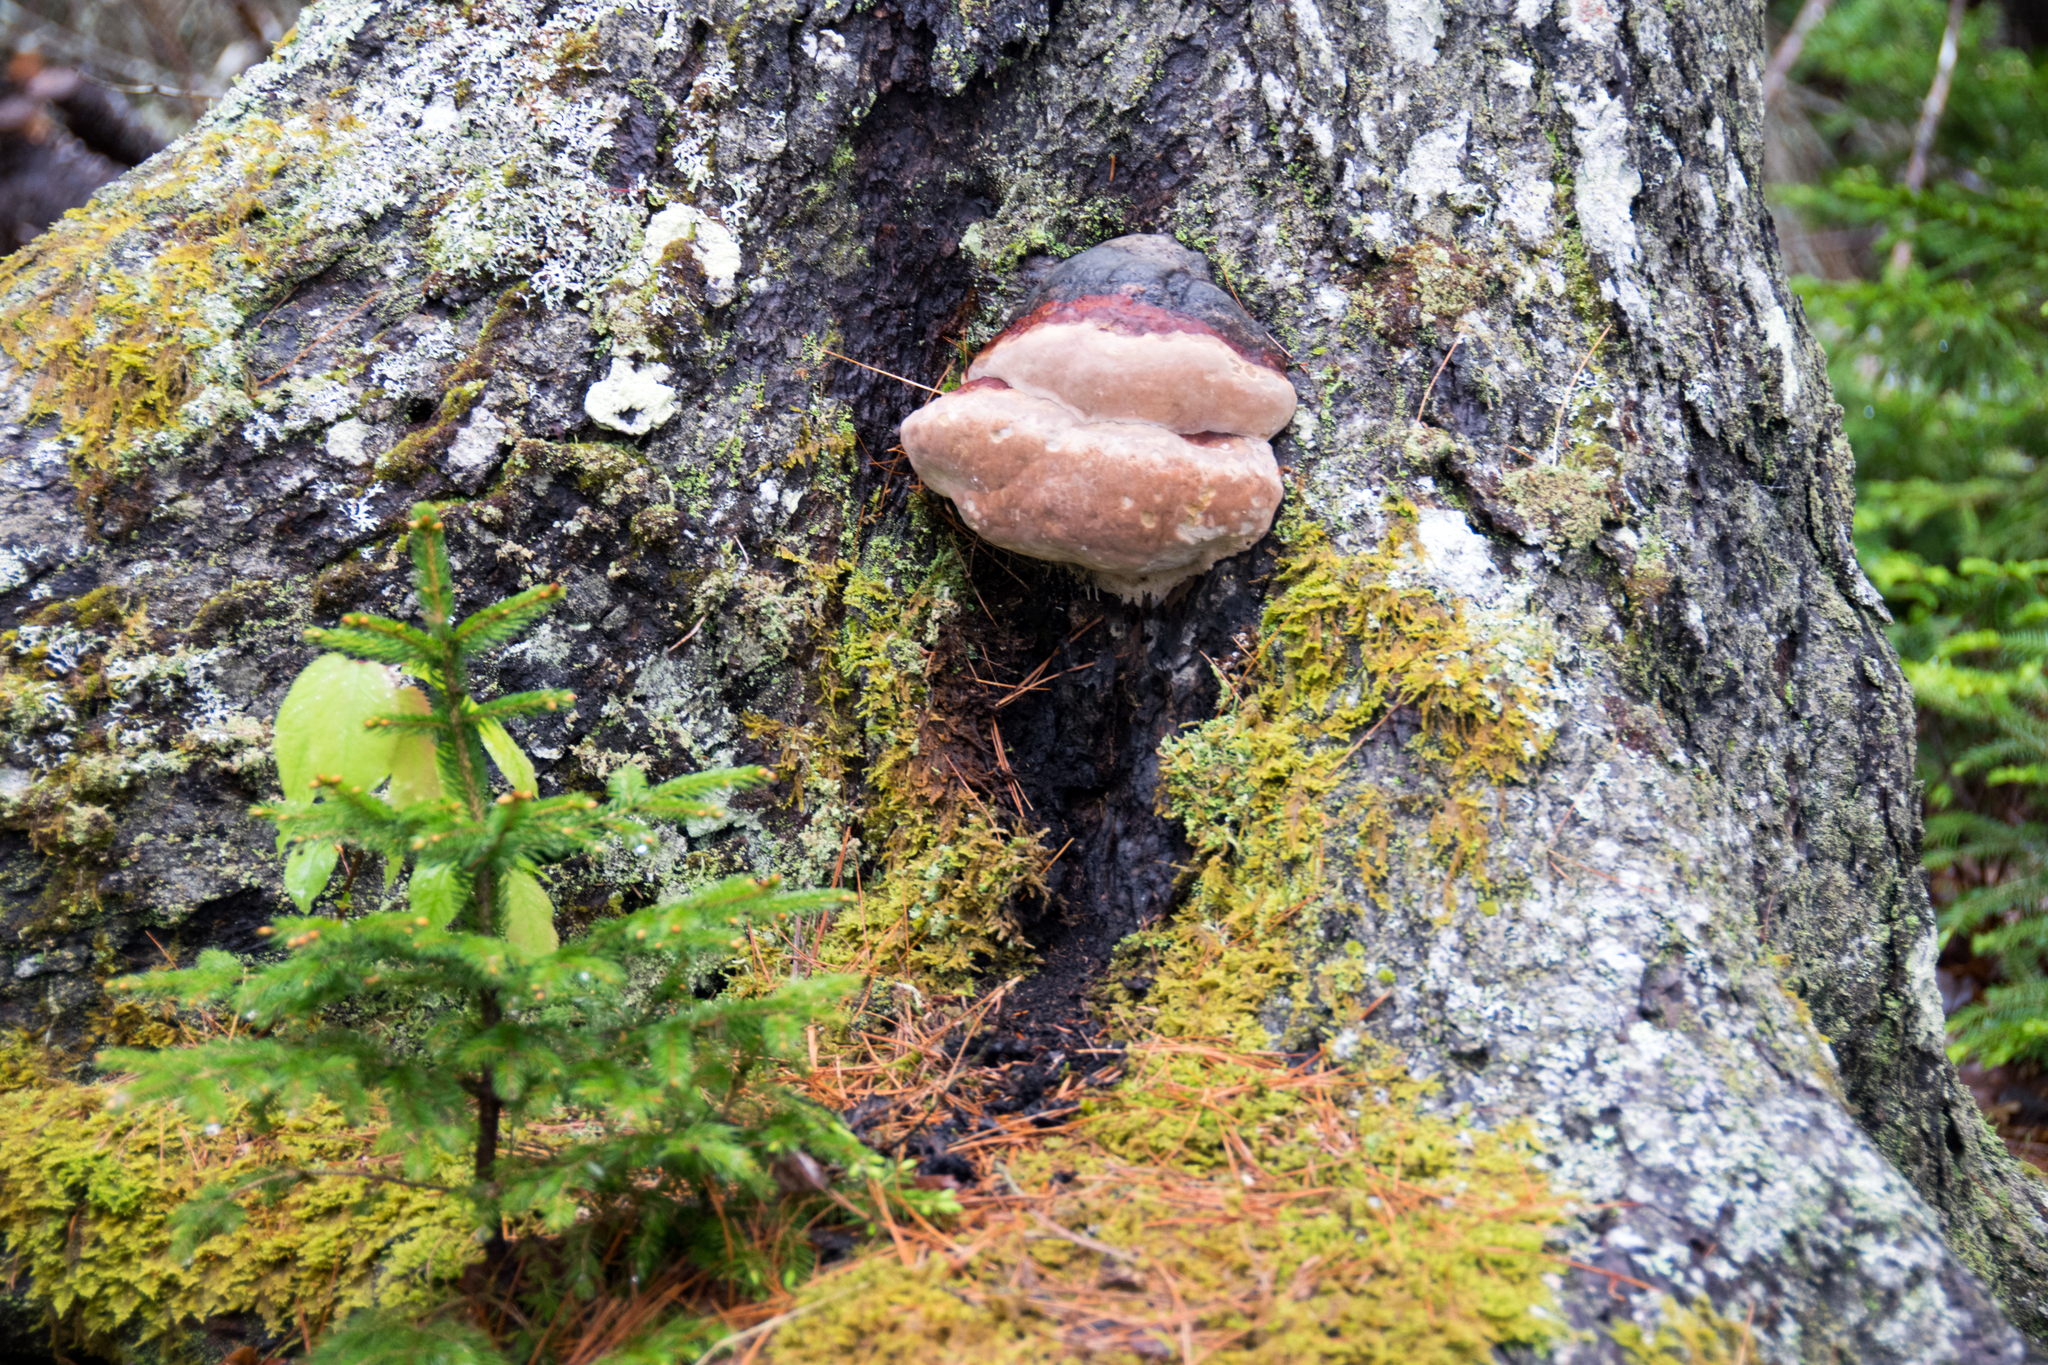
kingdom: Fungi
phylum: Basidiomycota
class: Agaricomycetes
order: Polyporales
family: Fomitopsidaceae
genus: Fomitopsis
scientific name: Fomitopsis mounceae
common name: Northern red belt
